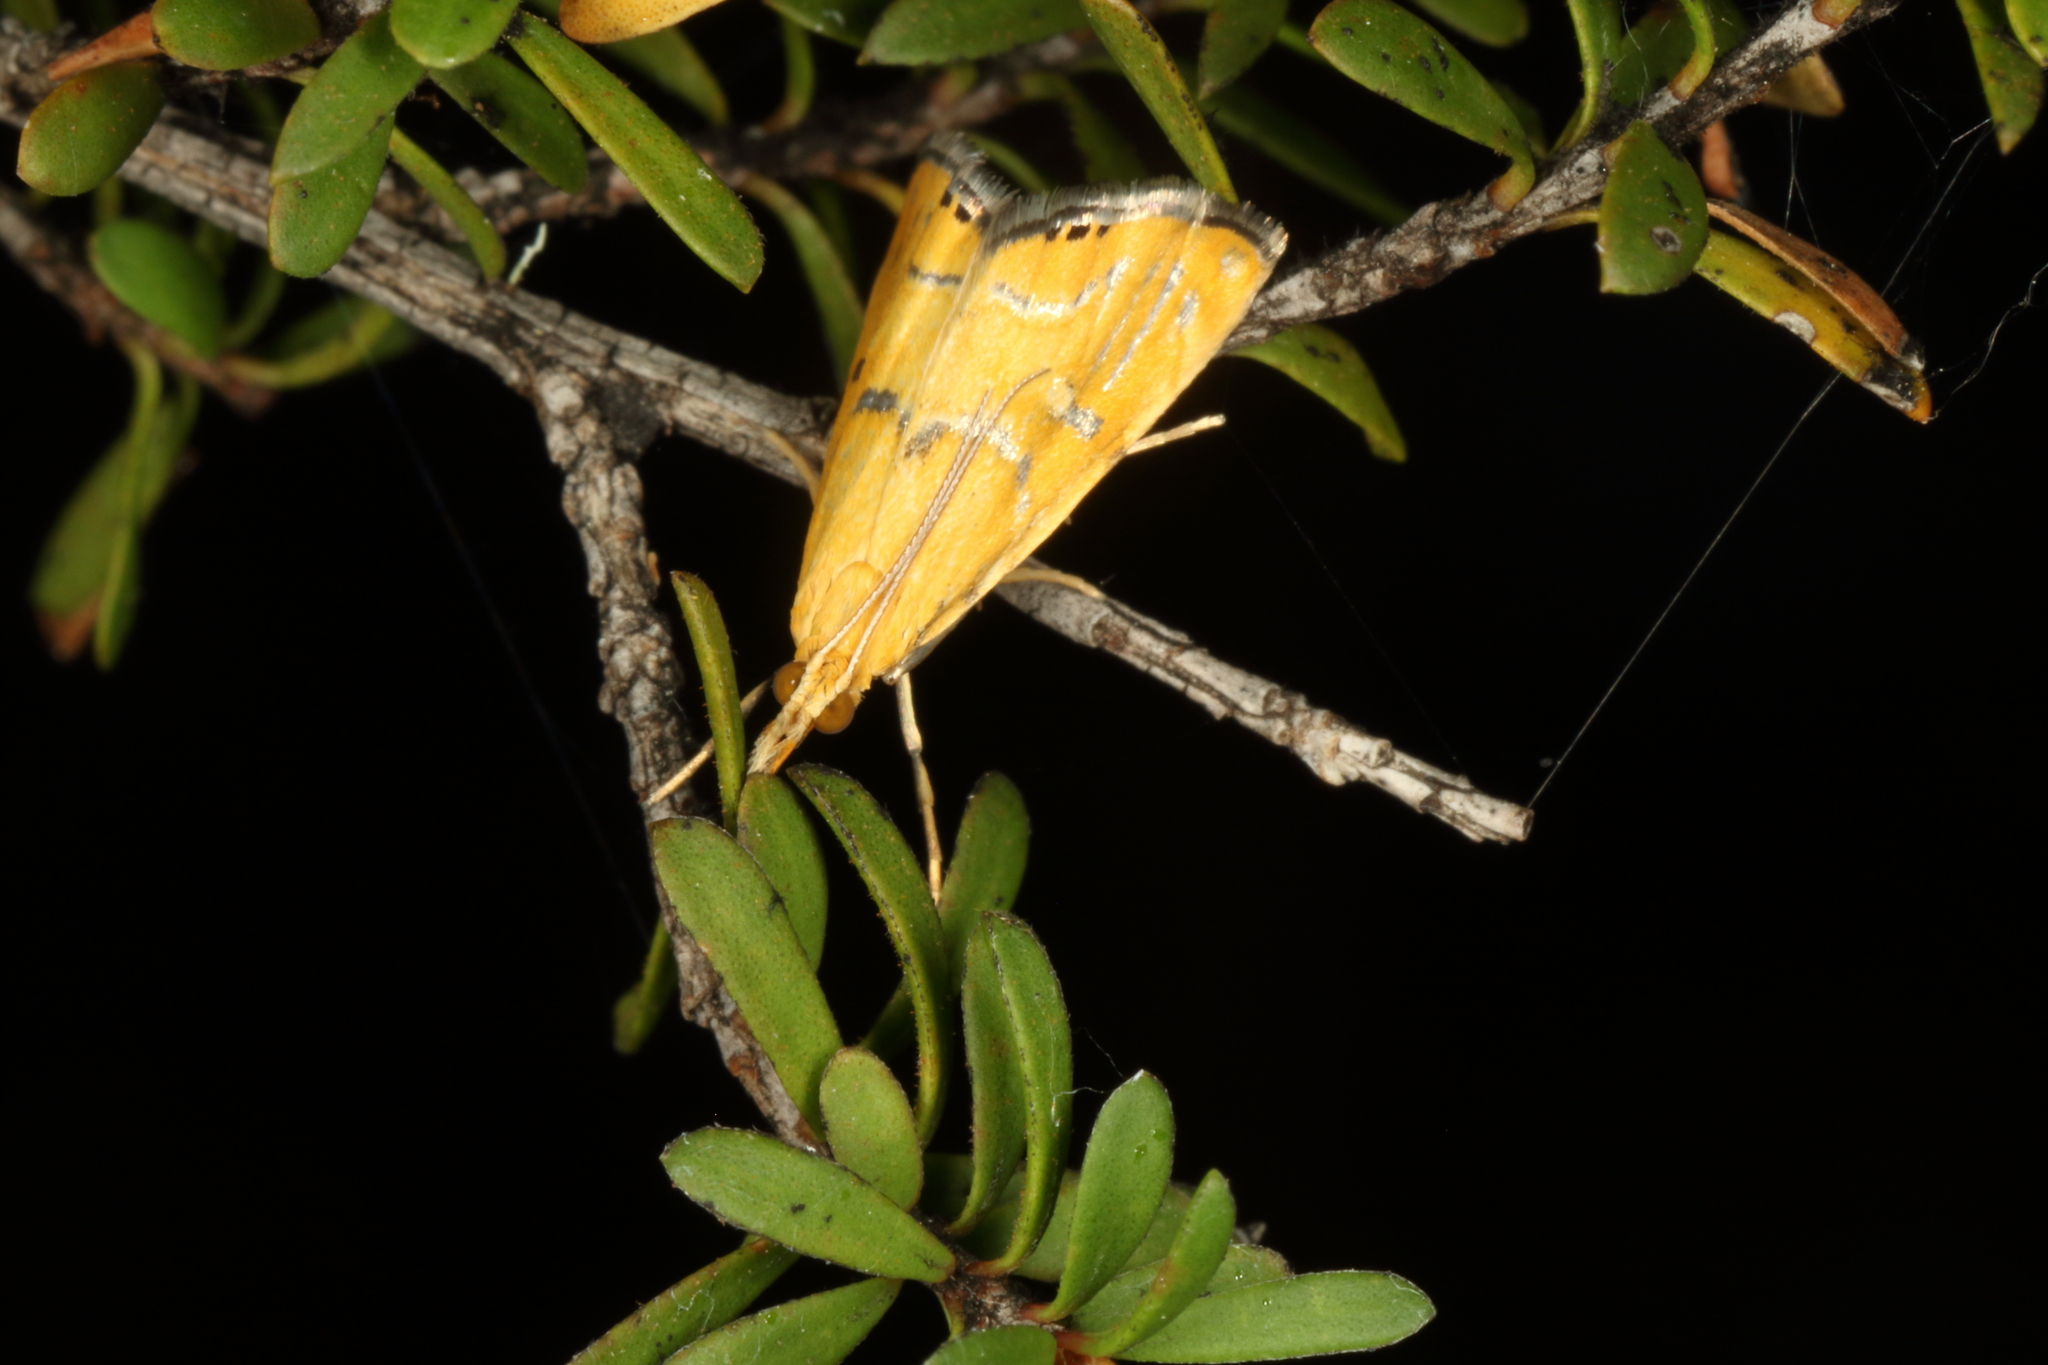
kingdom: Animalia
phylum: Arthropoda
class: Insecta
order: Lepidoptera
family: Crambidae
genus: Glaucocharis
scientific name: Glaucocharis auriscriptella
